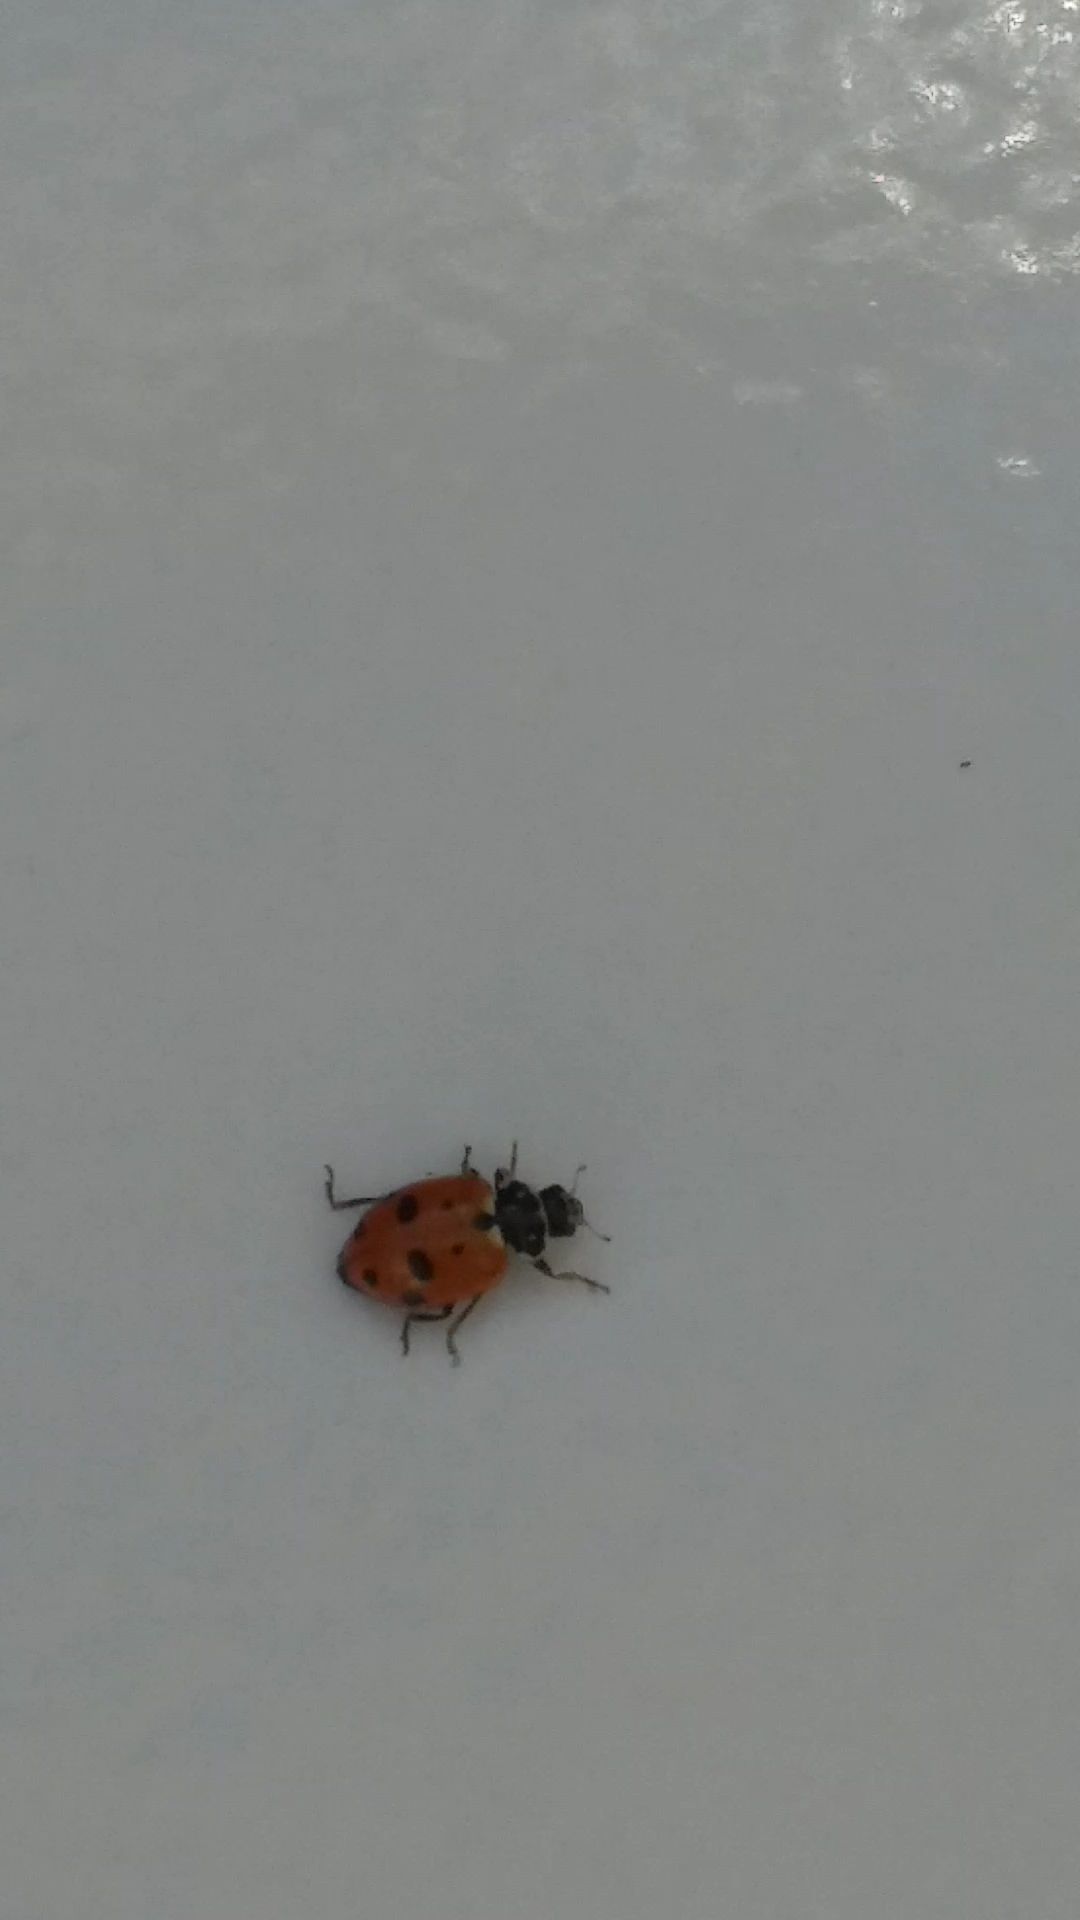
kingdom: Animalia
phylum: Arthropoda
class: Insecta
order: Coleoptera
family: Coccinellidae
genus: Hippodamia
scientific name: Hippodamia variegata
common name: Ladybird beetle
